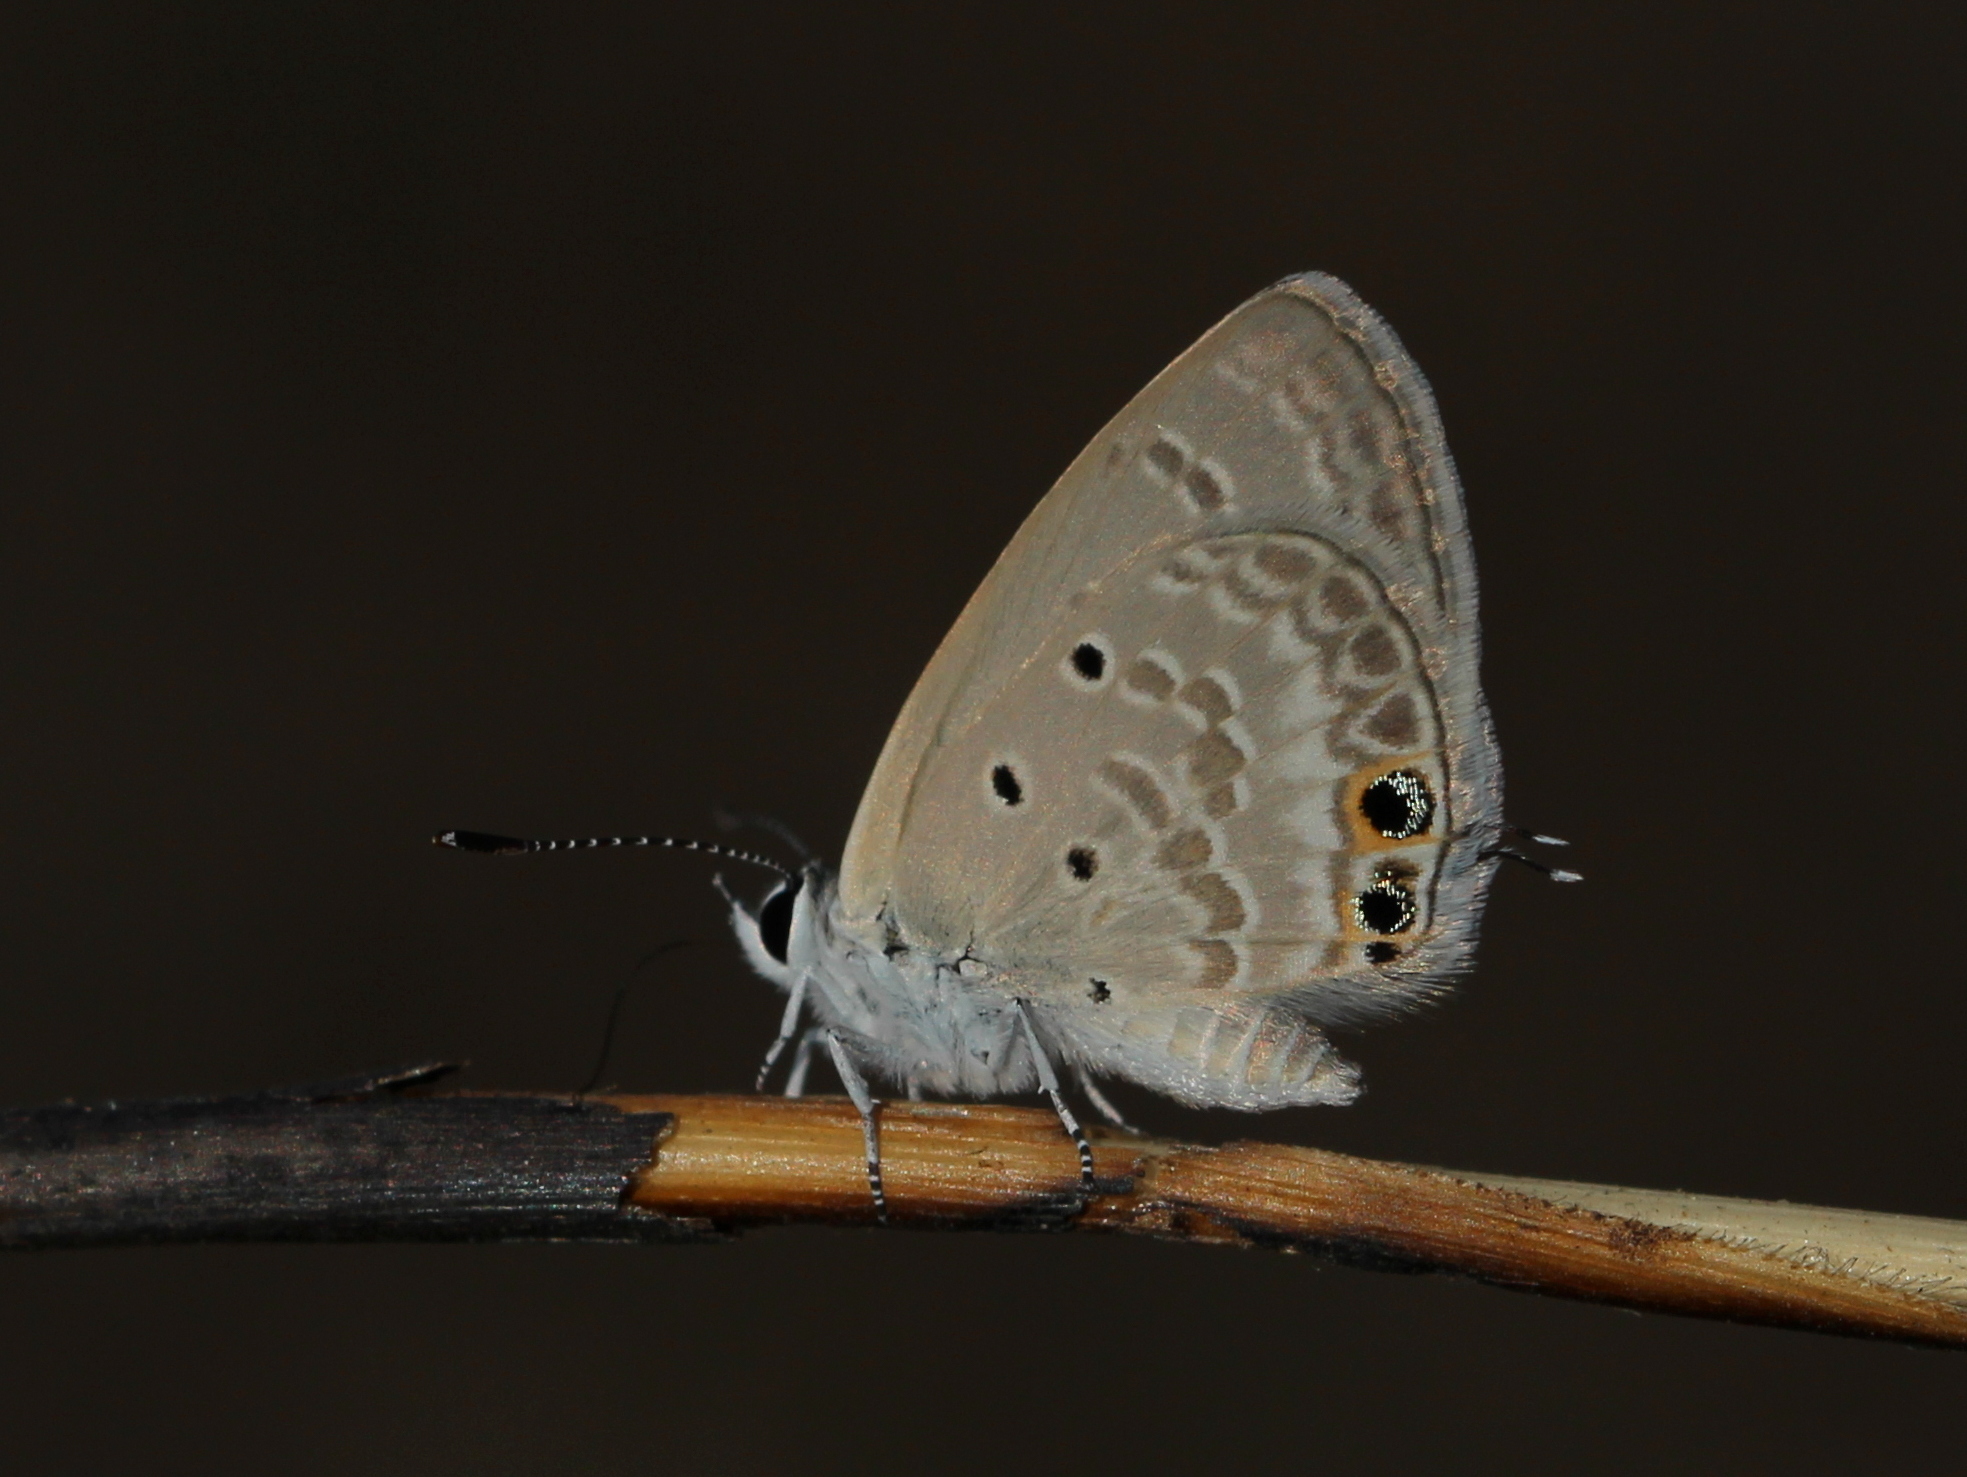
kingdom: Animalia
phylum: Arthropoda
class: Insecta
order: Lepidoptera
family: Lycaenidae
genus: Chilades
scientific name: Chilades parrhasius
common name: Small cupid
